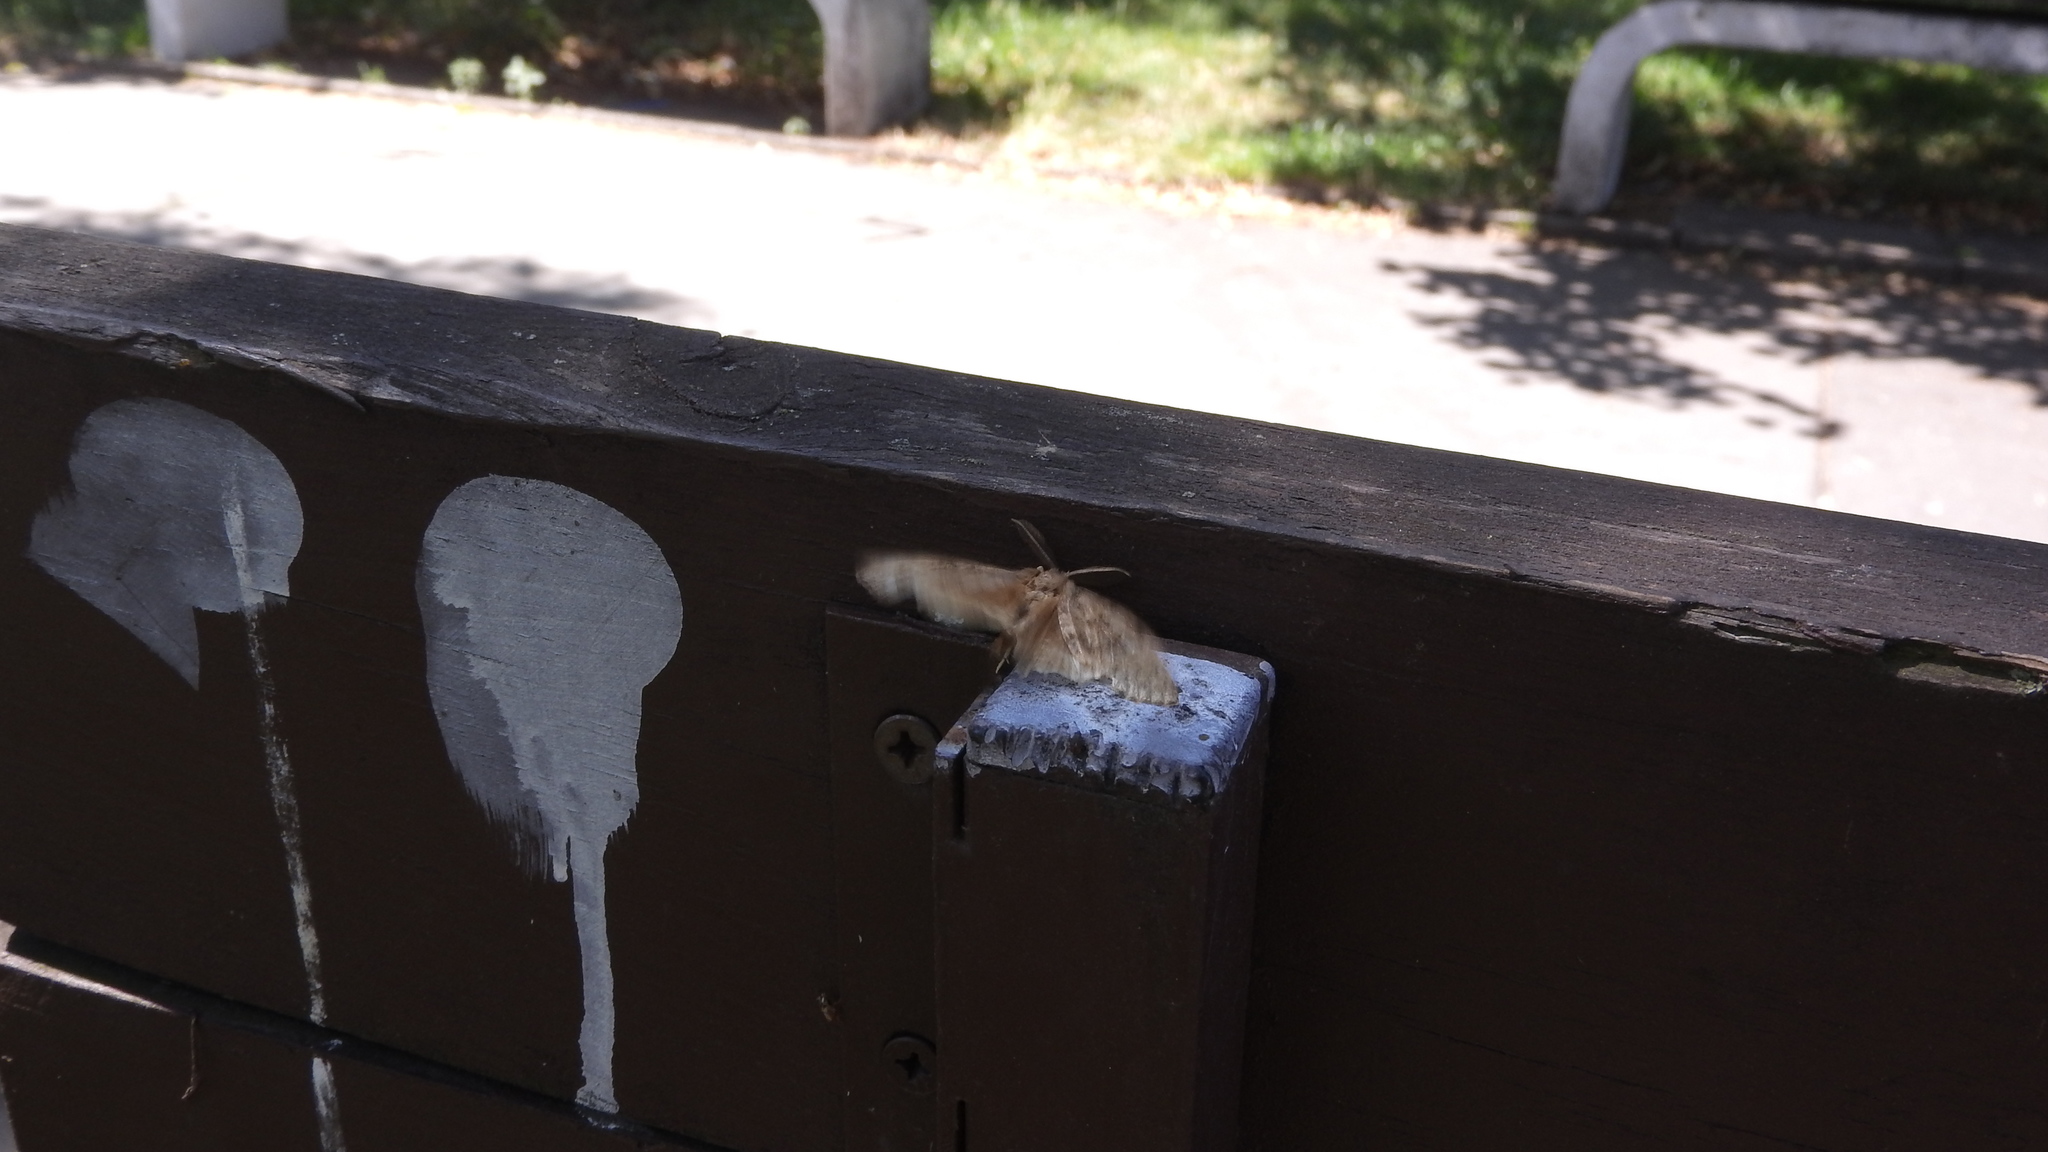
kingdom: Animalia
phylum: Arthropoda
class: Insecta
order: Lepidoptera
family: Erebidae
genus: Lymantria
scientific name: Lymantria dispar
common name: Gypsy moth
